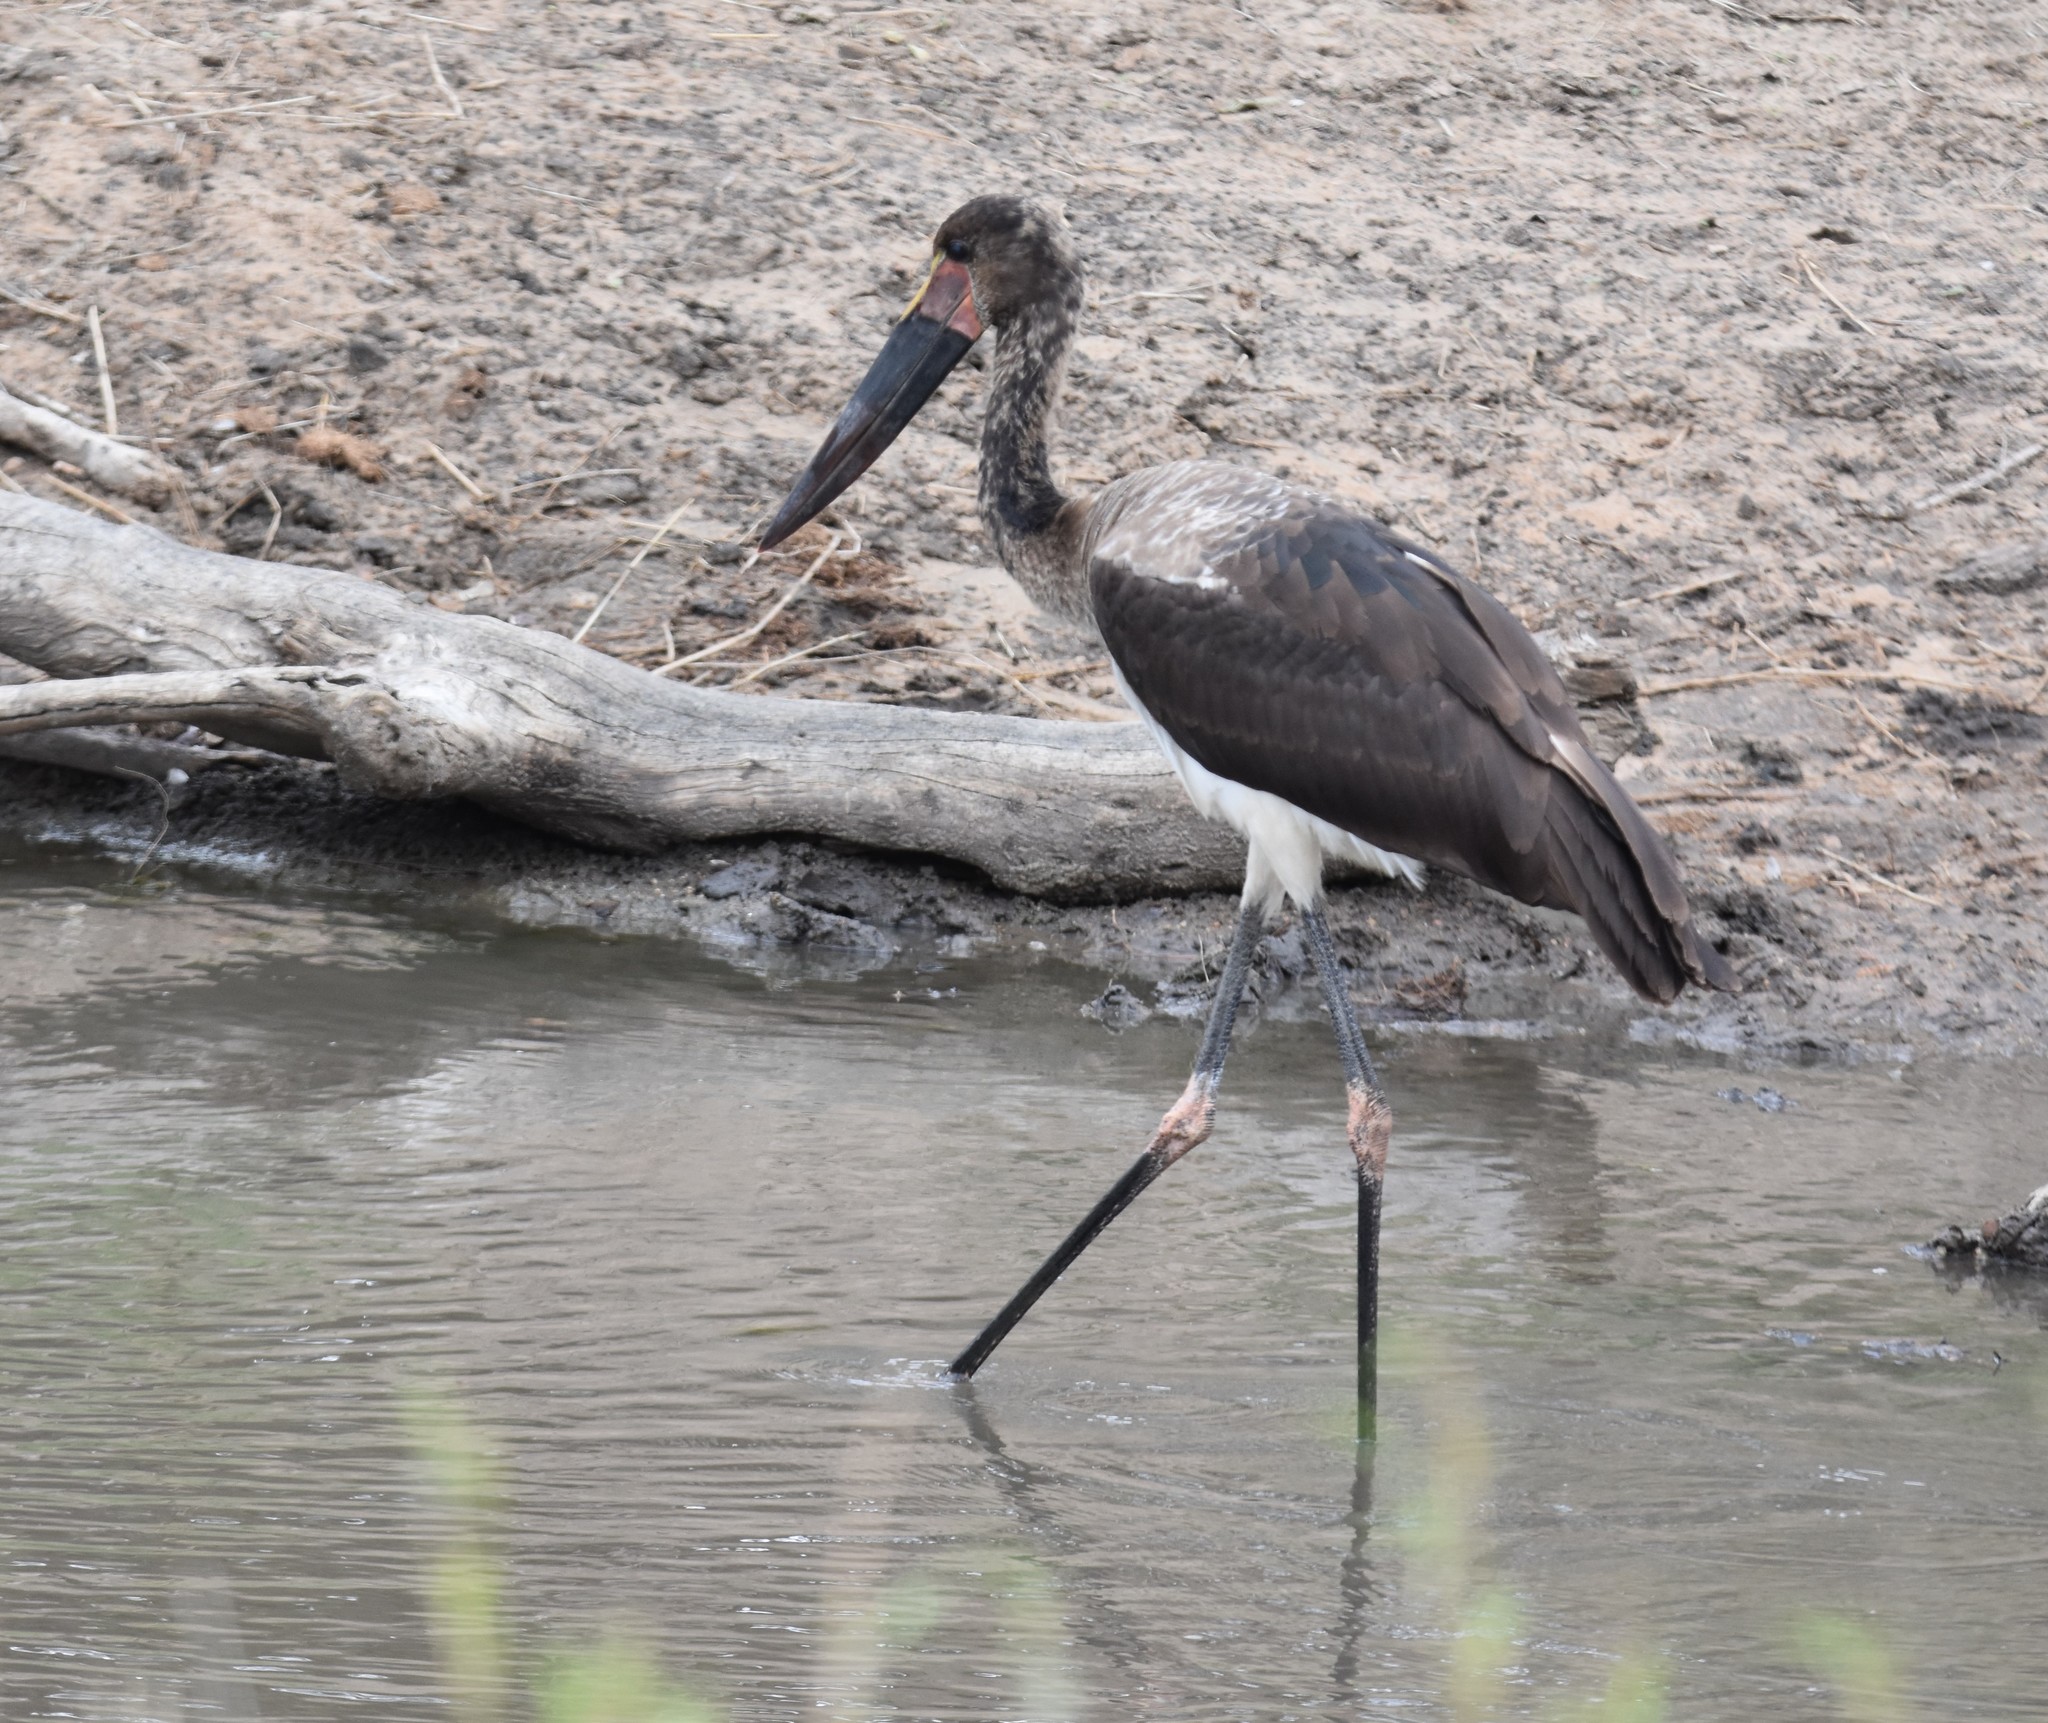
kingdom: Animalia
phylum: Chordata
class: Aves
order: Ciconiiformes
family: Ciconiidae
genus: Ephippiorhynchus
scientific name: Ephippiorhynchus senegalensis
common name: Saddle-billed stork
